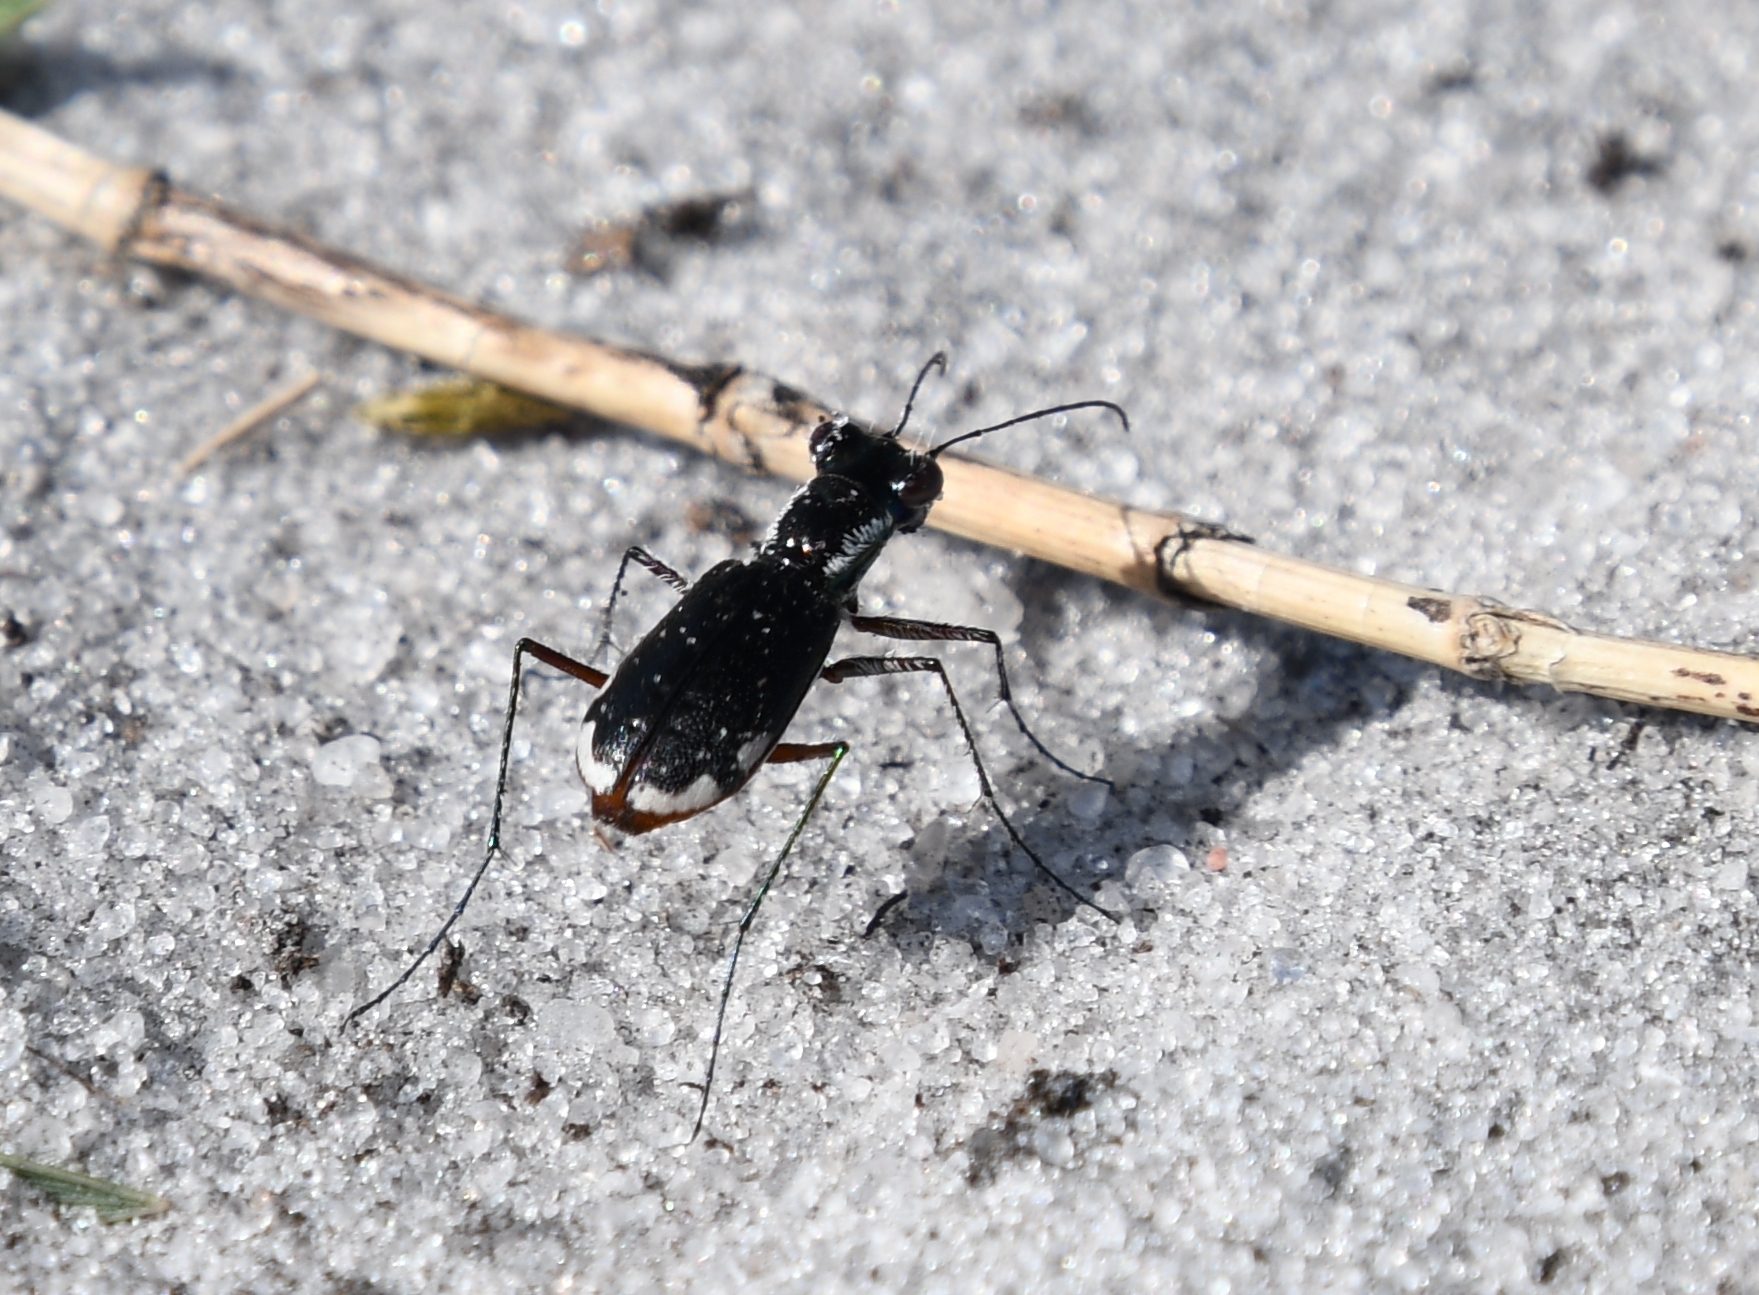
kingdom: Animalia
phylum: Arthropoda
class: Insecta
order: Coleoptera
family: Carabidae
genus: Cicindela
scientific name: Cicindela scabrosa
